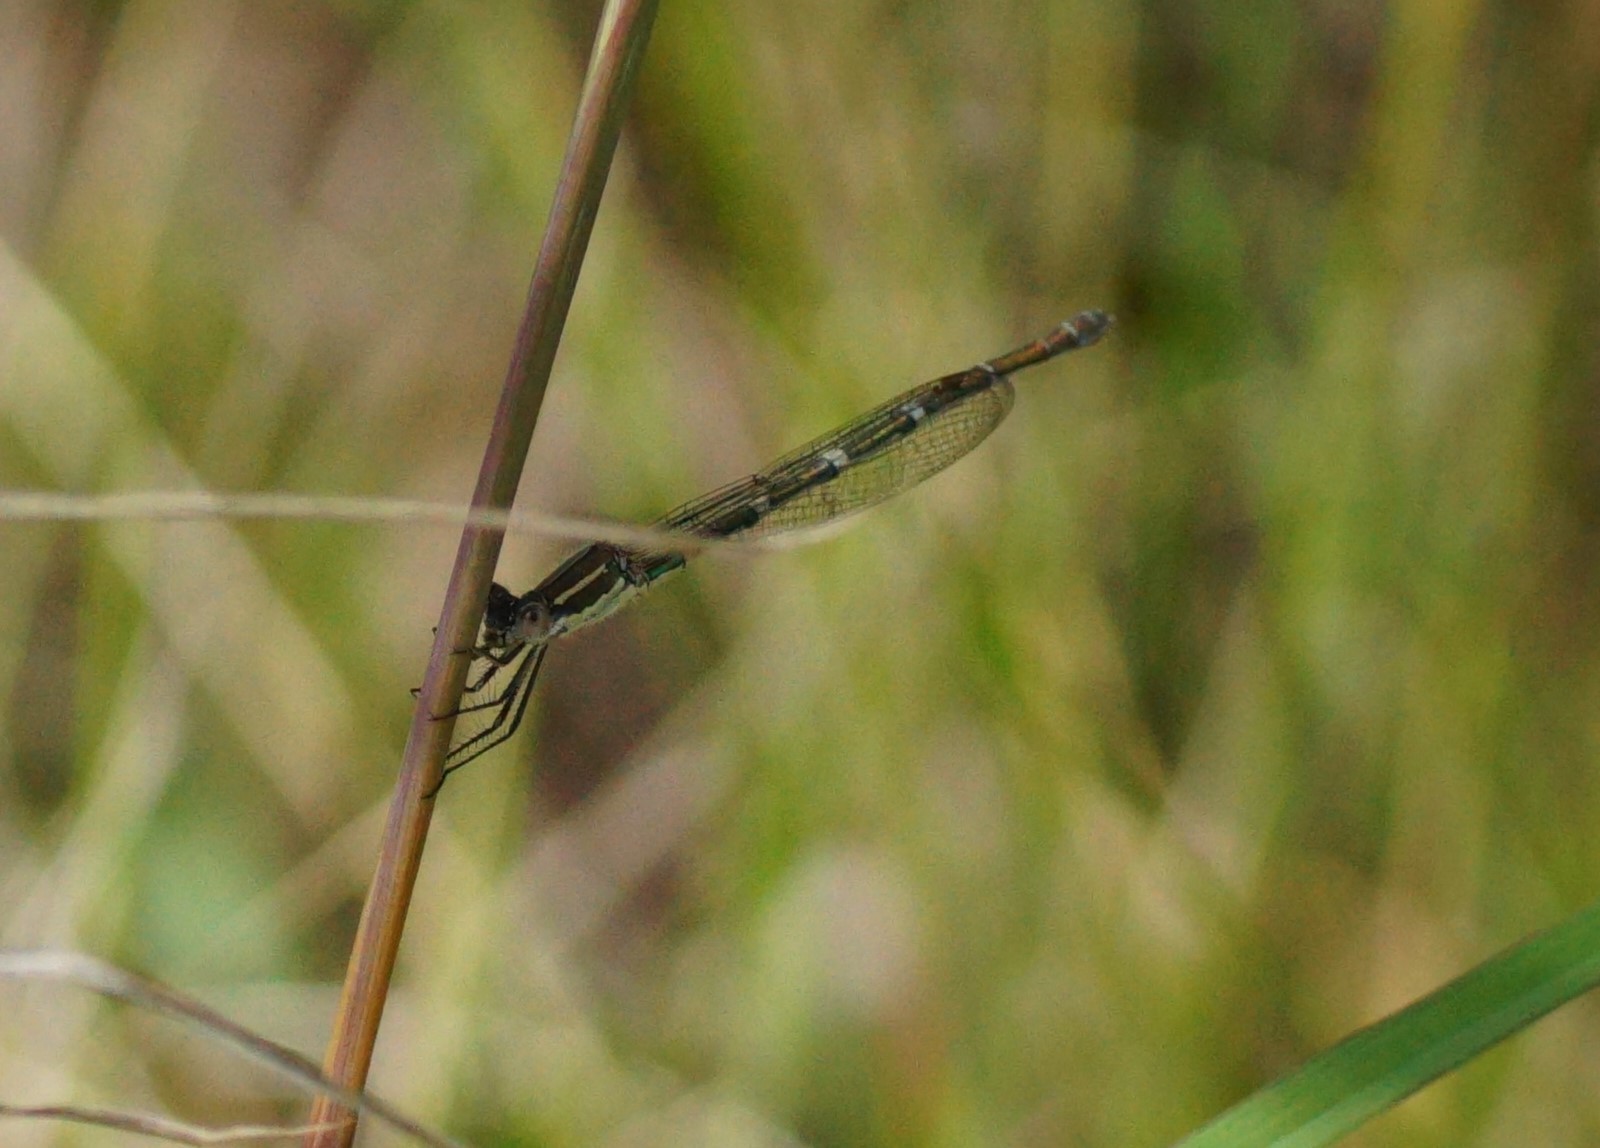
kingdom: Animalia
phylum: Arthropoda
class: Insecta
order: Odonata
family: Lestidae
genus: Austrolestes
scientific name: Austrolestes leda
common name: Wandering ringtail
